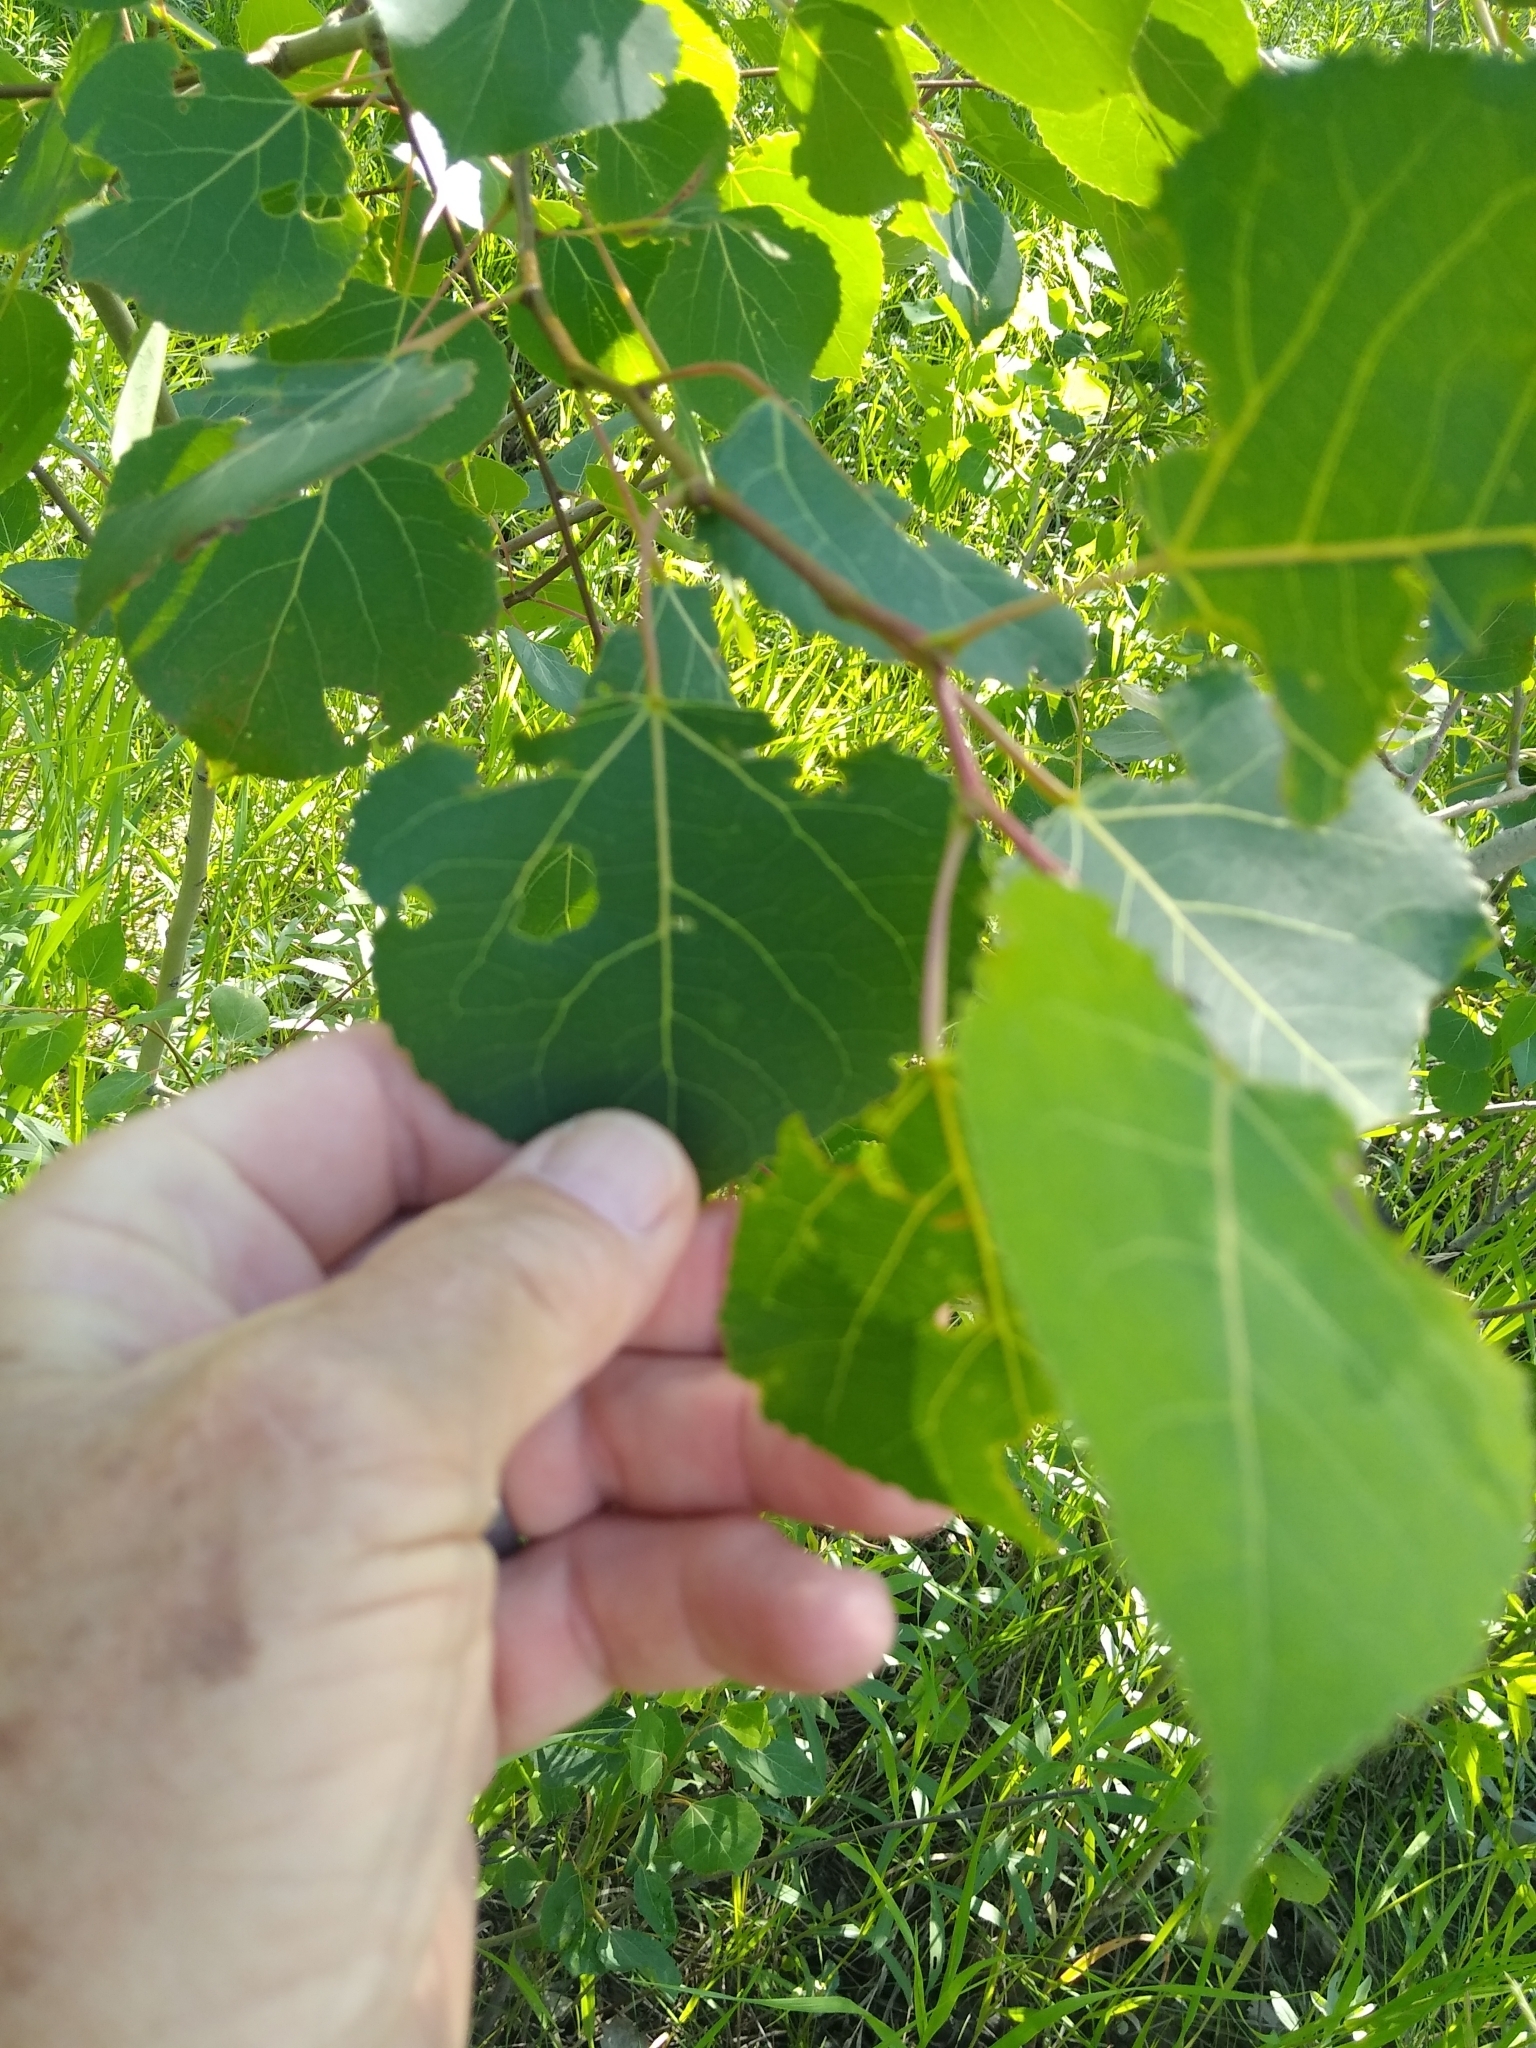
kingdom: Plantae
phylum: Tracheophyta
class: Magnoliopsida
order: Malpighiales
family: Salicaceae
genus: Populus
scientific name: Populus tremuloides
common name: Quaking aspen
